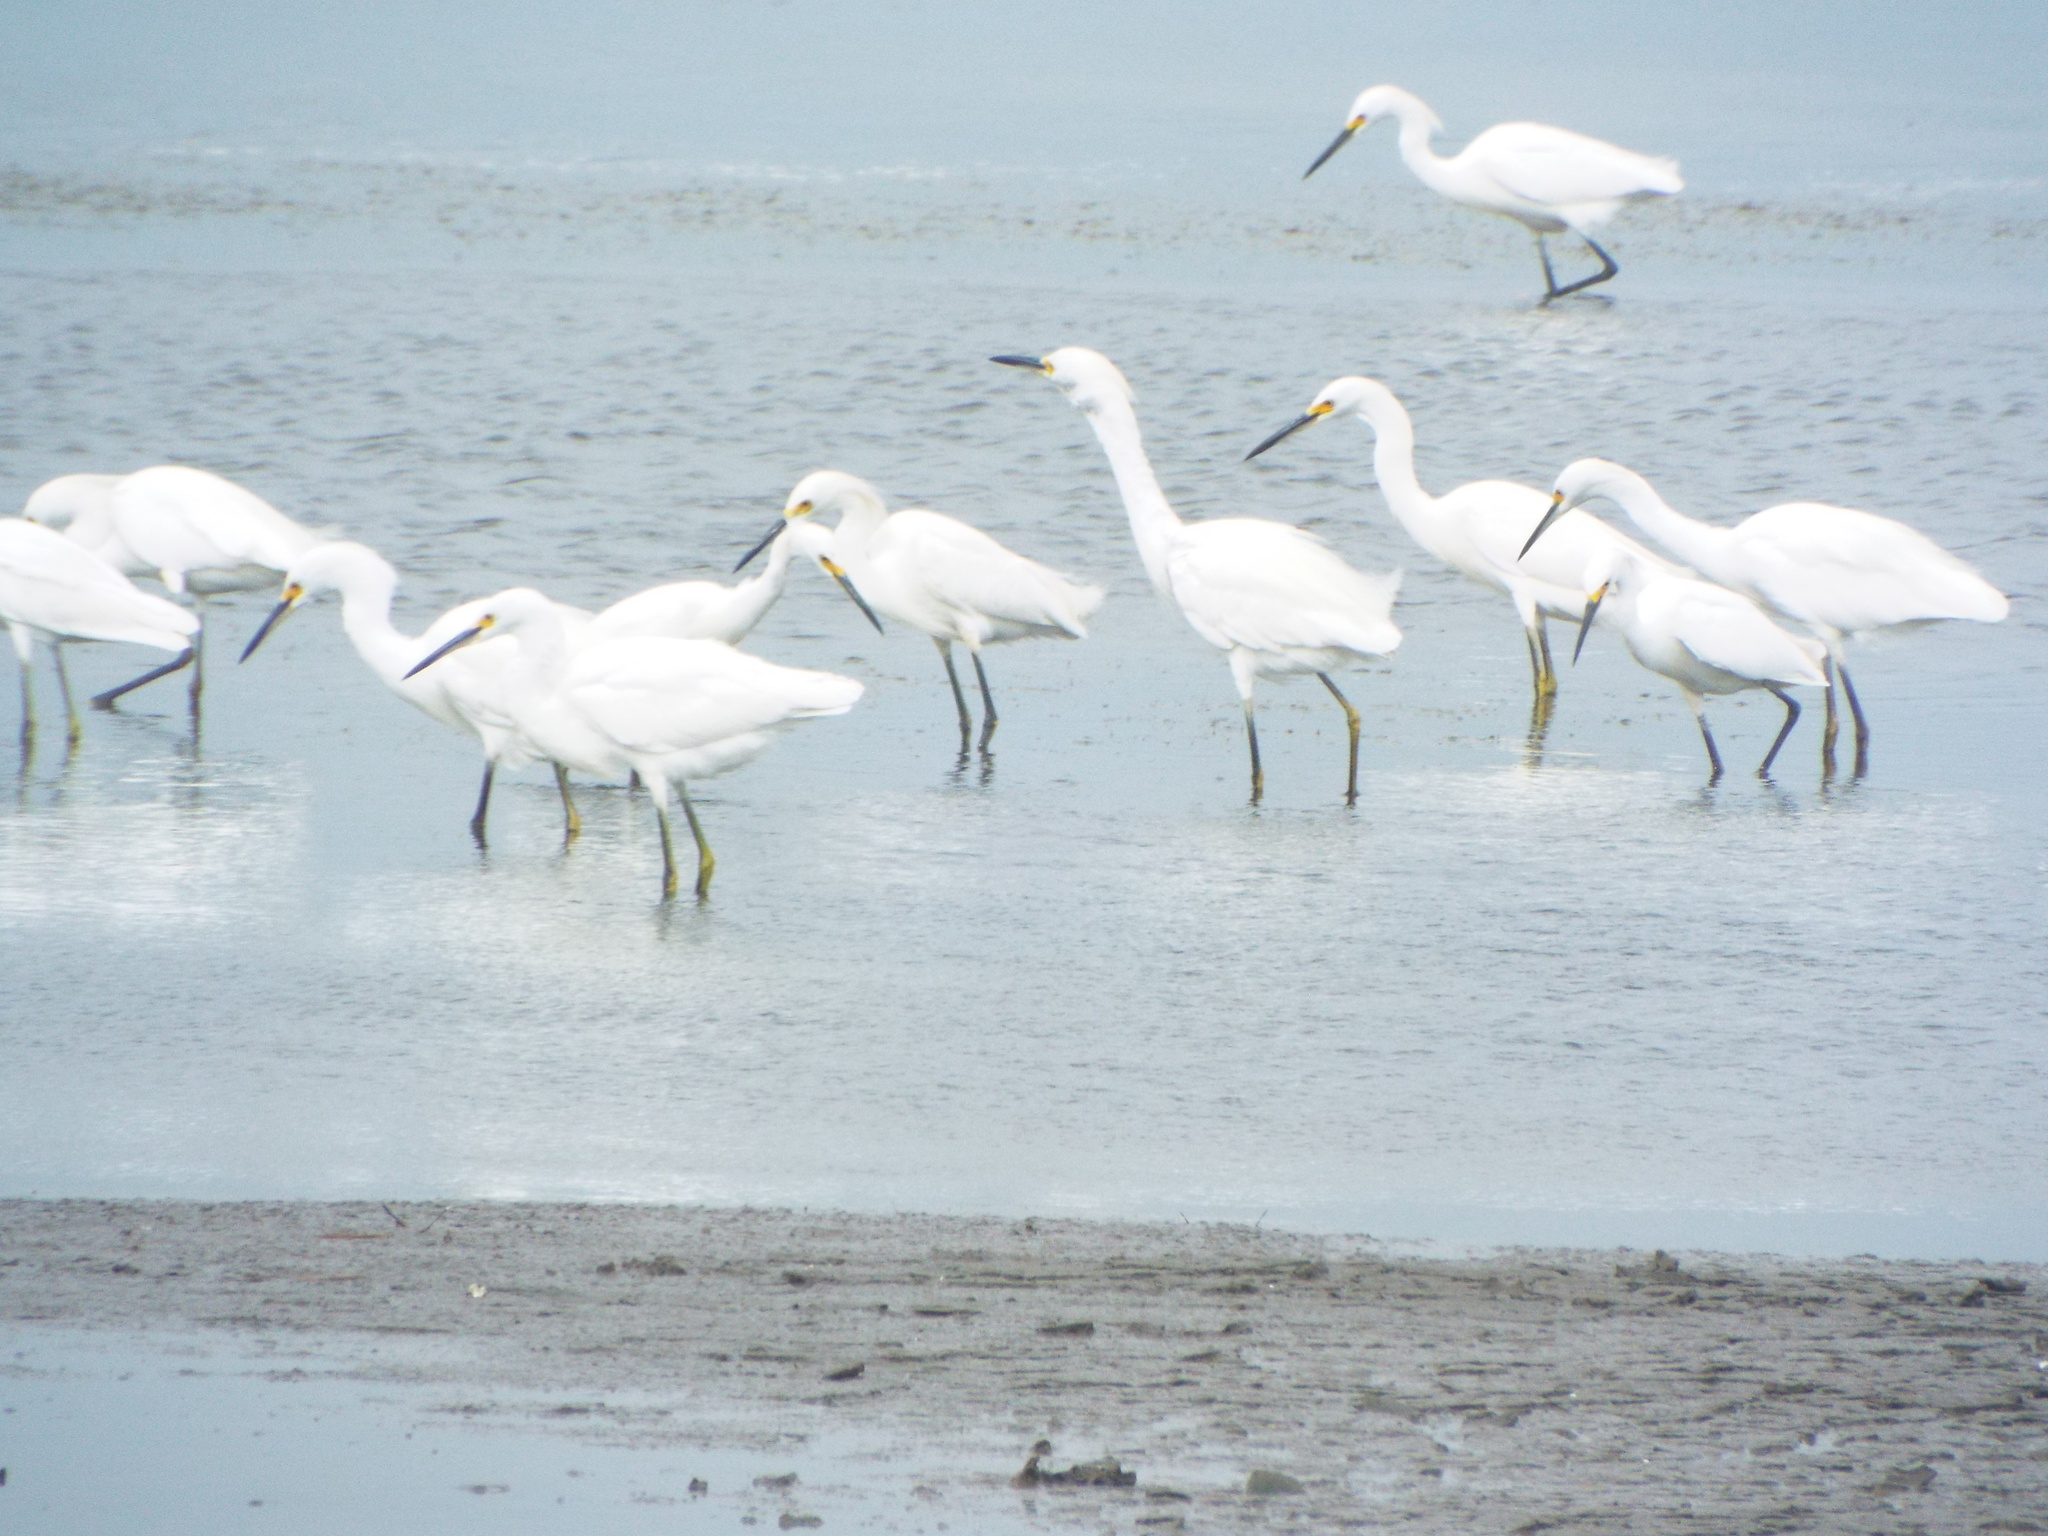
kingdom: Animalia
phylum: Chordata
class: Aves
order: Pelecaniformes
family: Ardeidae
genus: Egretta
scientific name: Egretta thula
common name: Snowy egret
